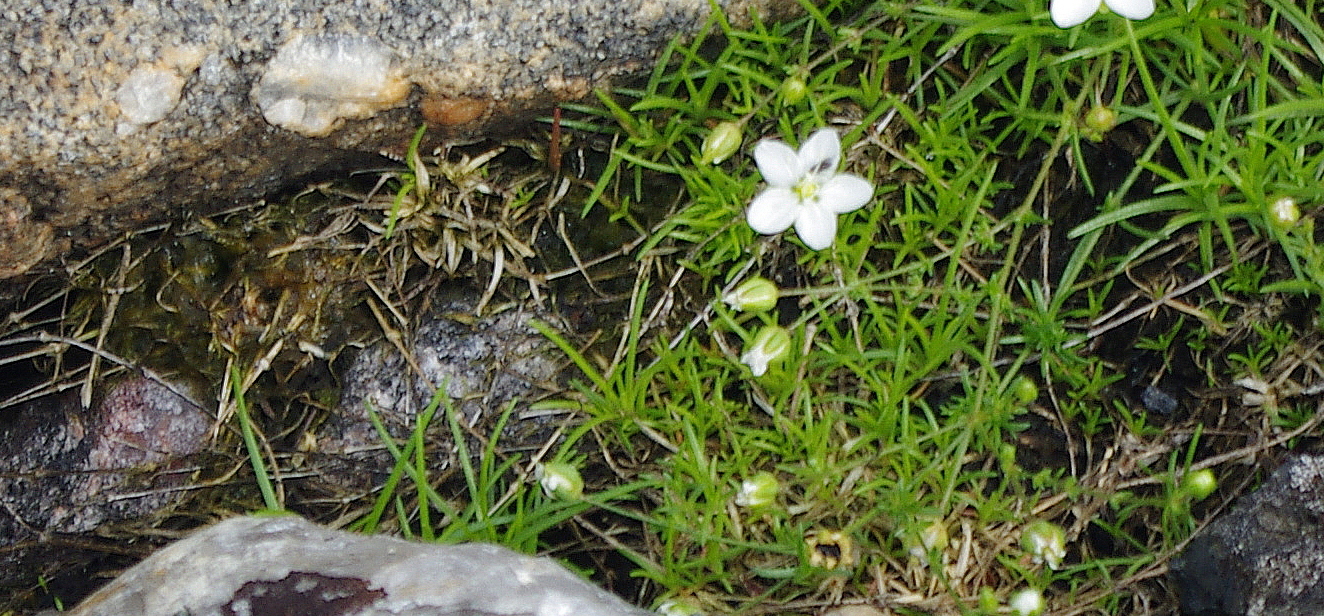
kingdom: Plantae
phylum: Tracheophyta
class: Magnoliopsida
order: Caryophyllales
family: Caryophyllaceae
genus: Sagina
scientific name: Sagina nodosa
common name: Knotted pearlwort
